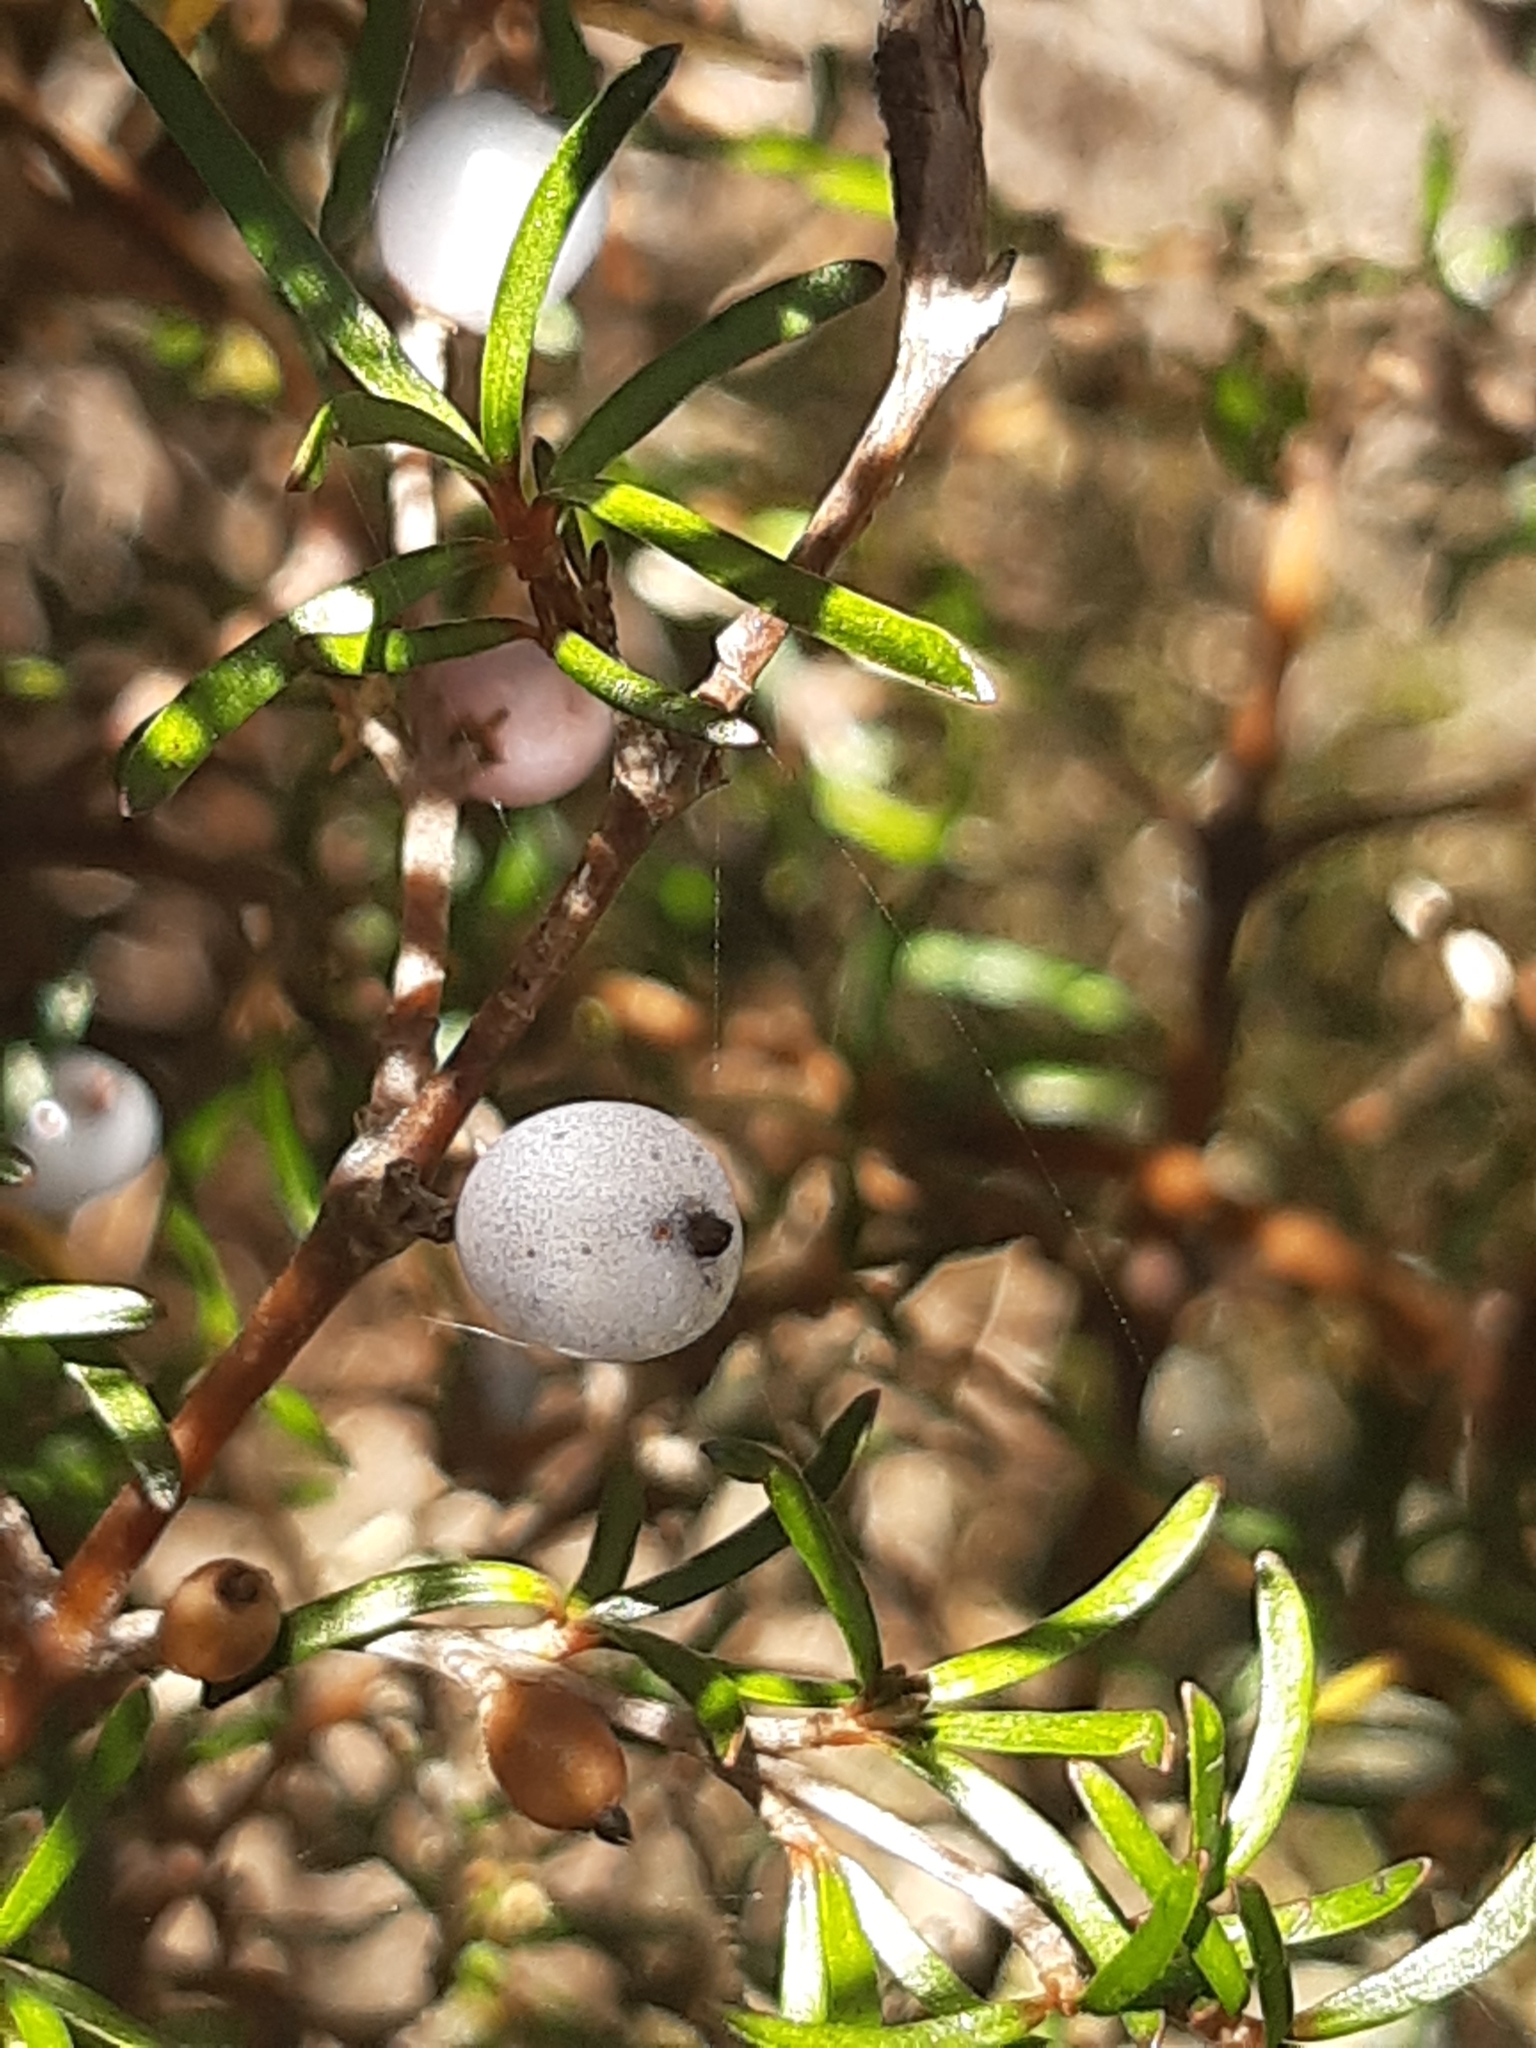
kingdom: Plantae
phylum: Tracheophyta
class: Magnoliopsida
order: Gentianales
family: Rubiaceae
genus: Coprosma
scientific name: Coprosma rugosa
